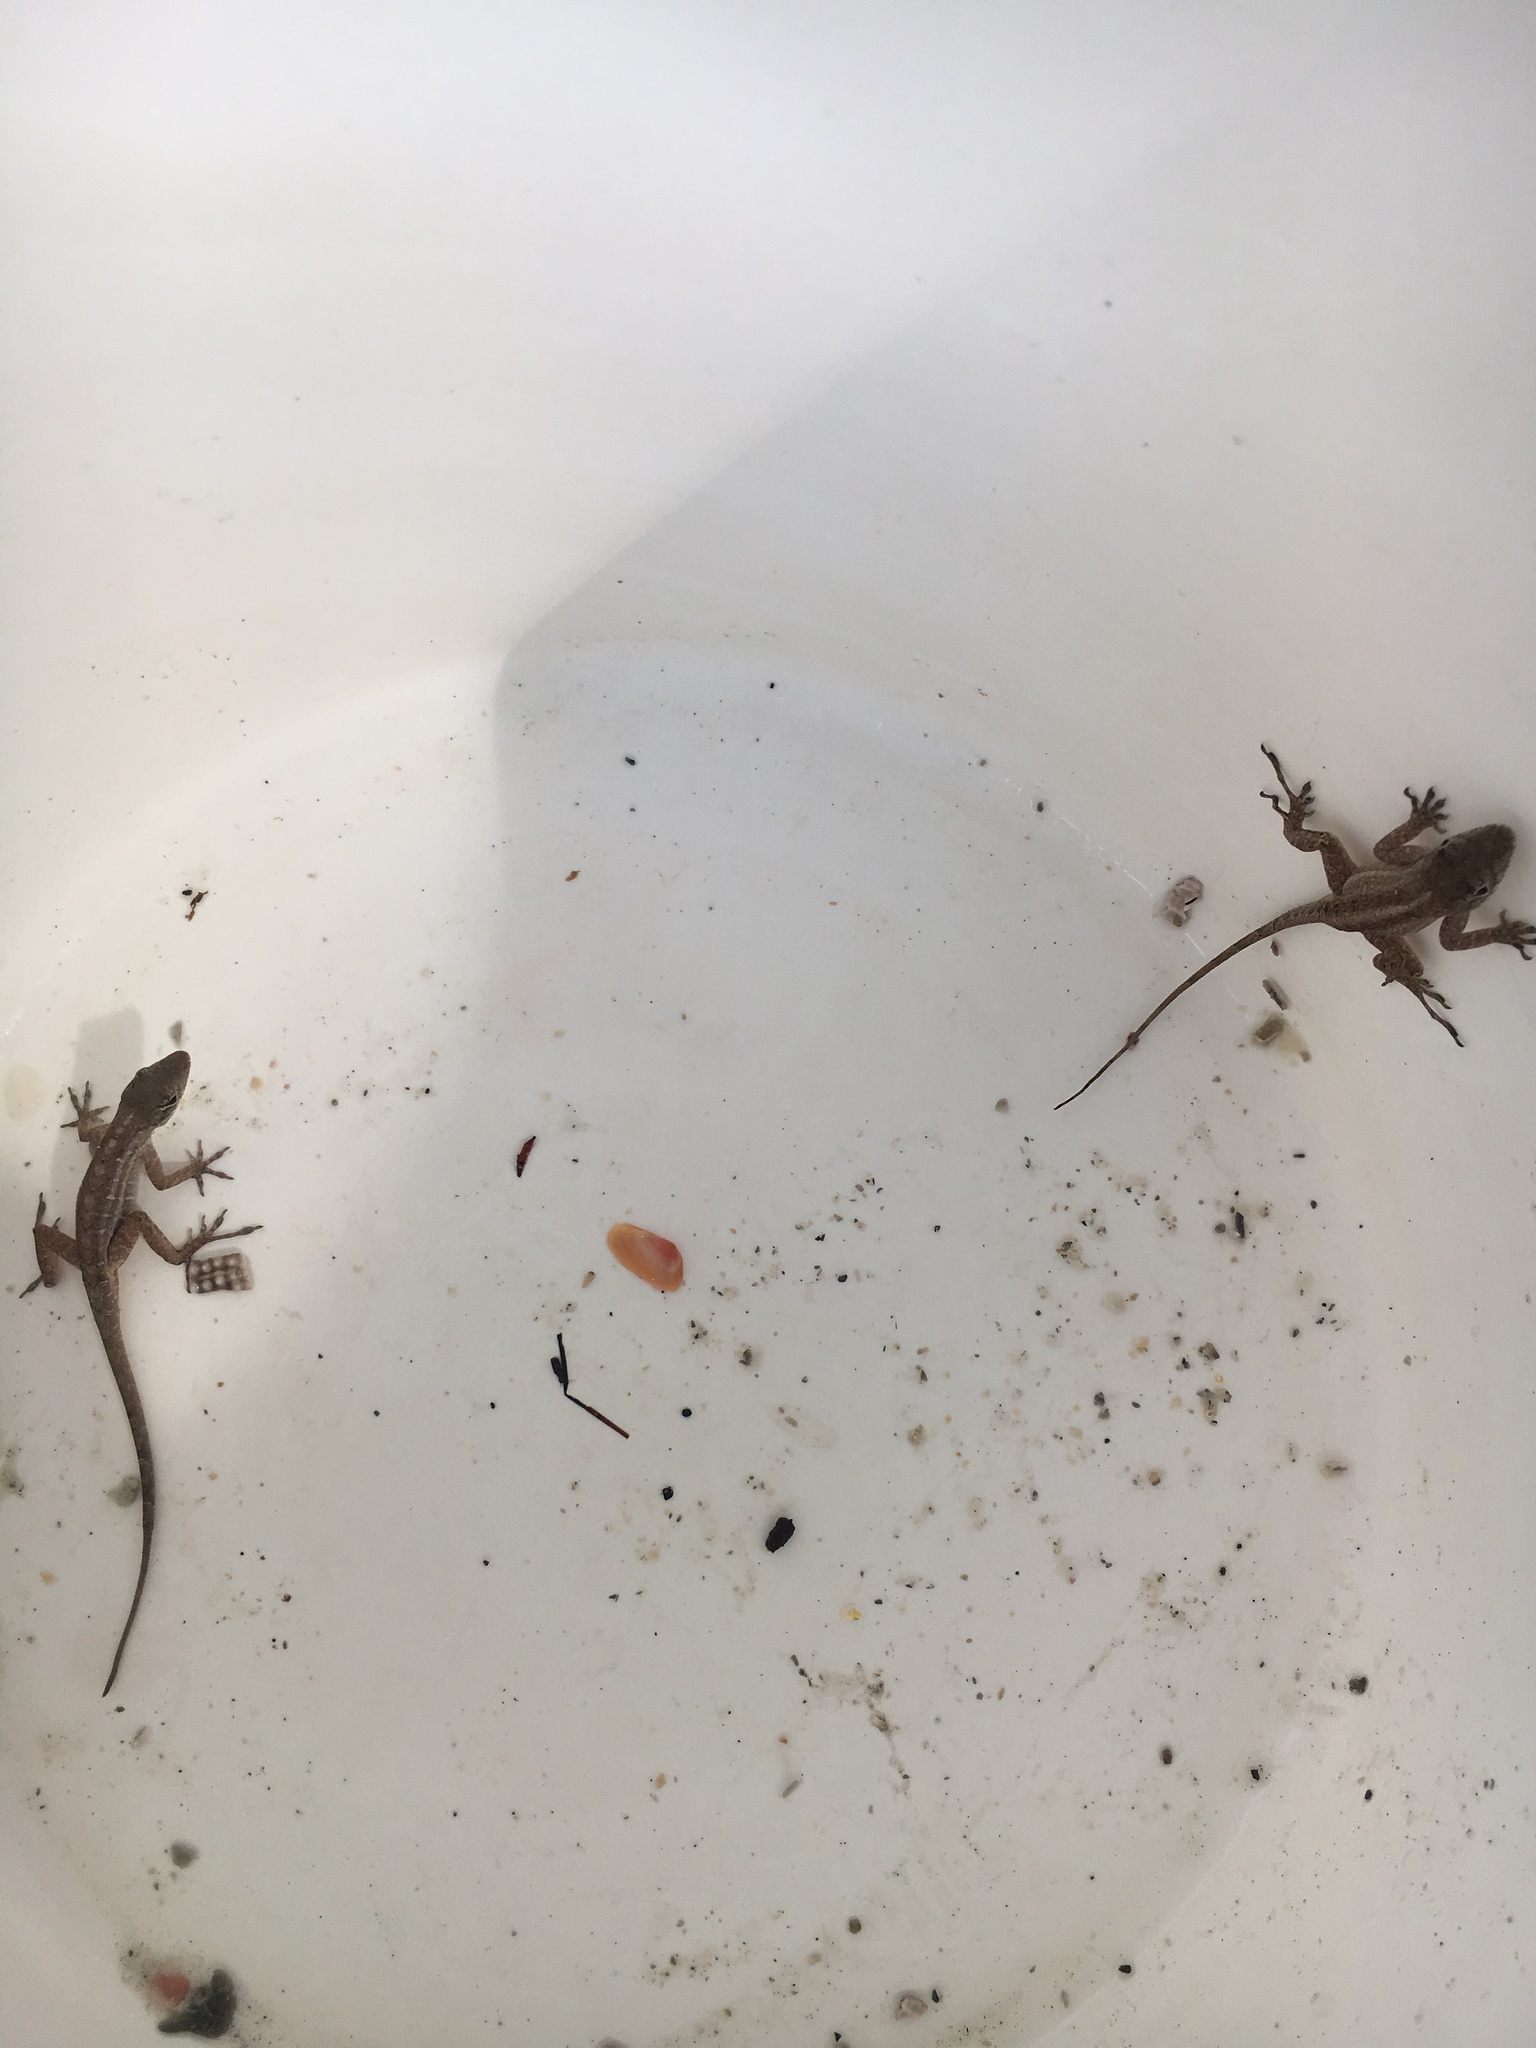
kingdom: Animalia
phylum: Chordata
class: Squamata
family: Dactyloidae
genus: Anolis
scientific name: Anolis sagrei
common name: Brown anole
